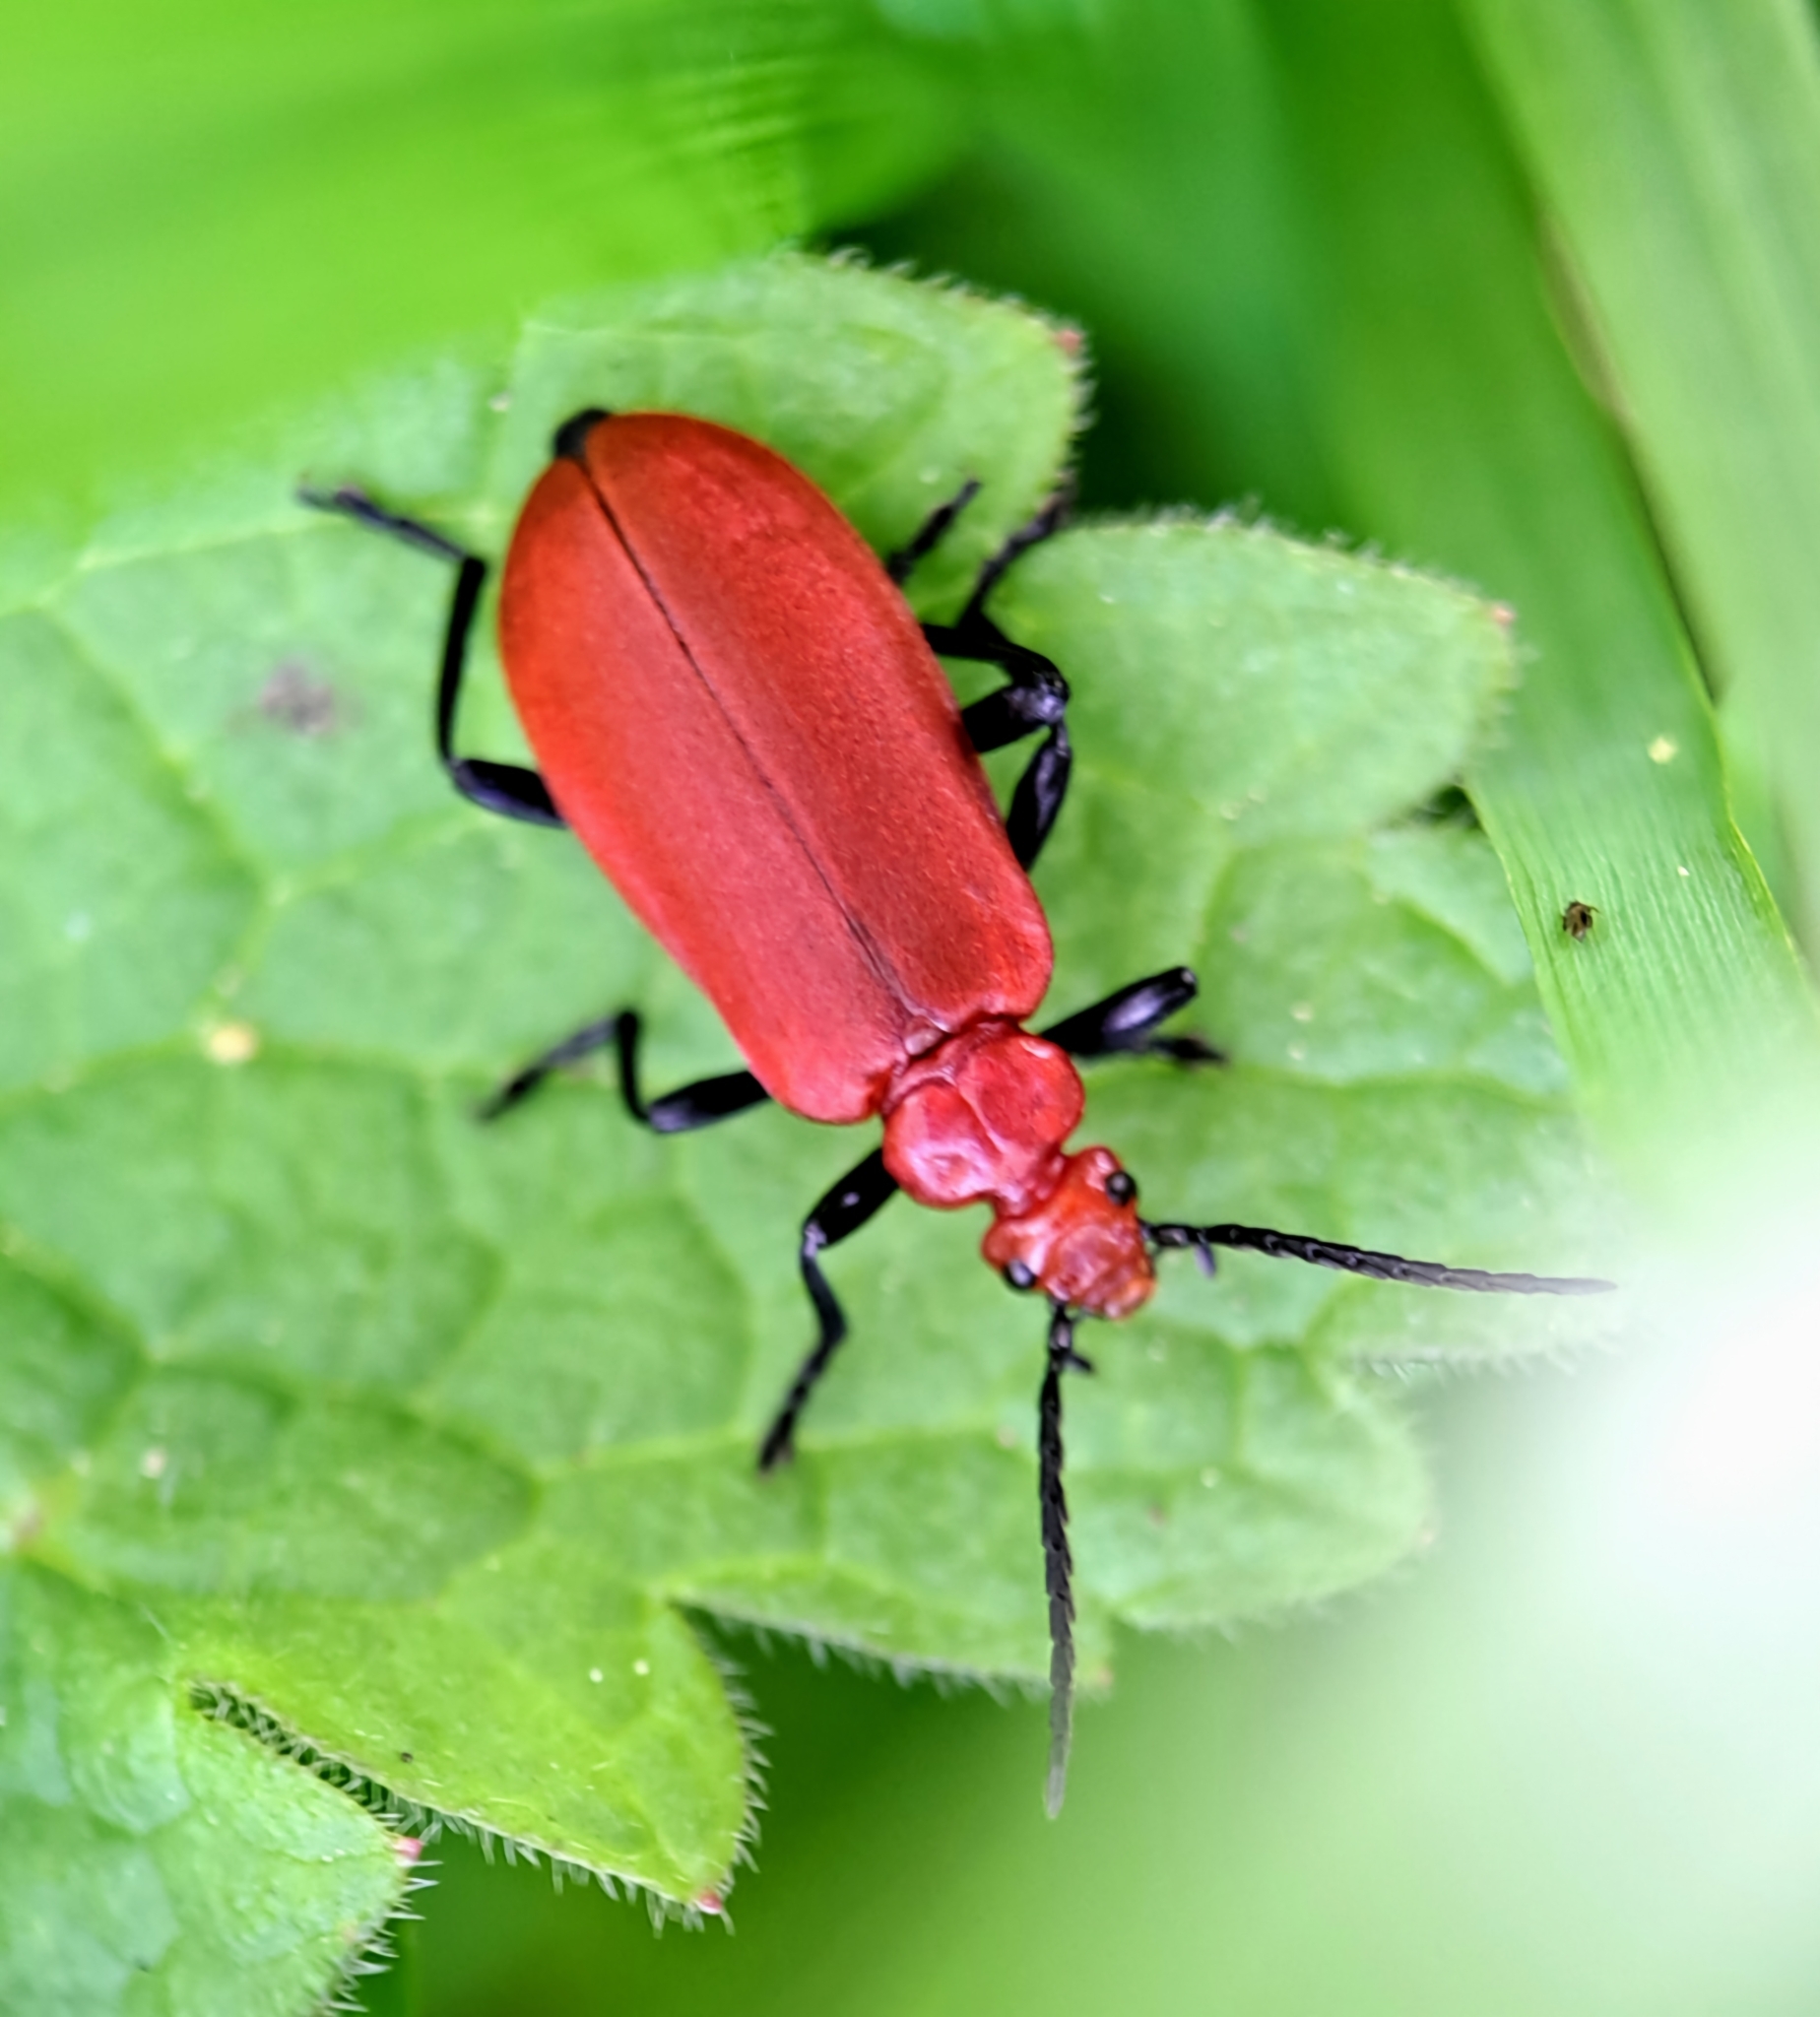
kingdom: Animalia
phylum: Arthropoda
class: Insecta
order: Coleoptera
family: Pyrochroidae
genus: Pyrochroa
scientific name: Pyrochroa serraticornis
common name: Red-headed cardinal beetle
